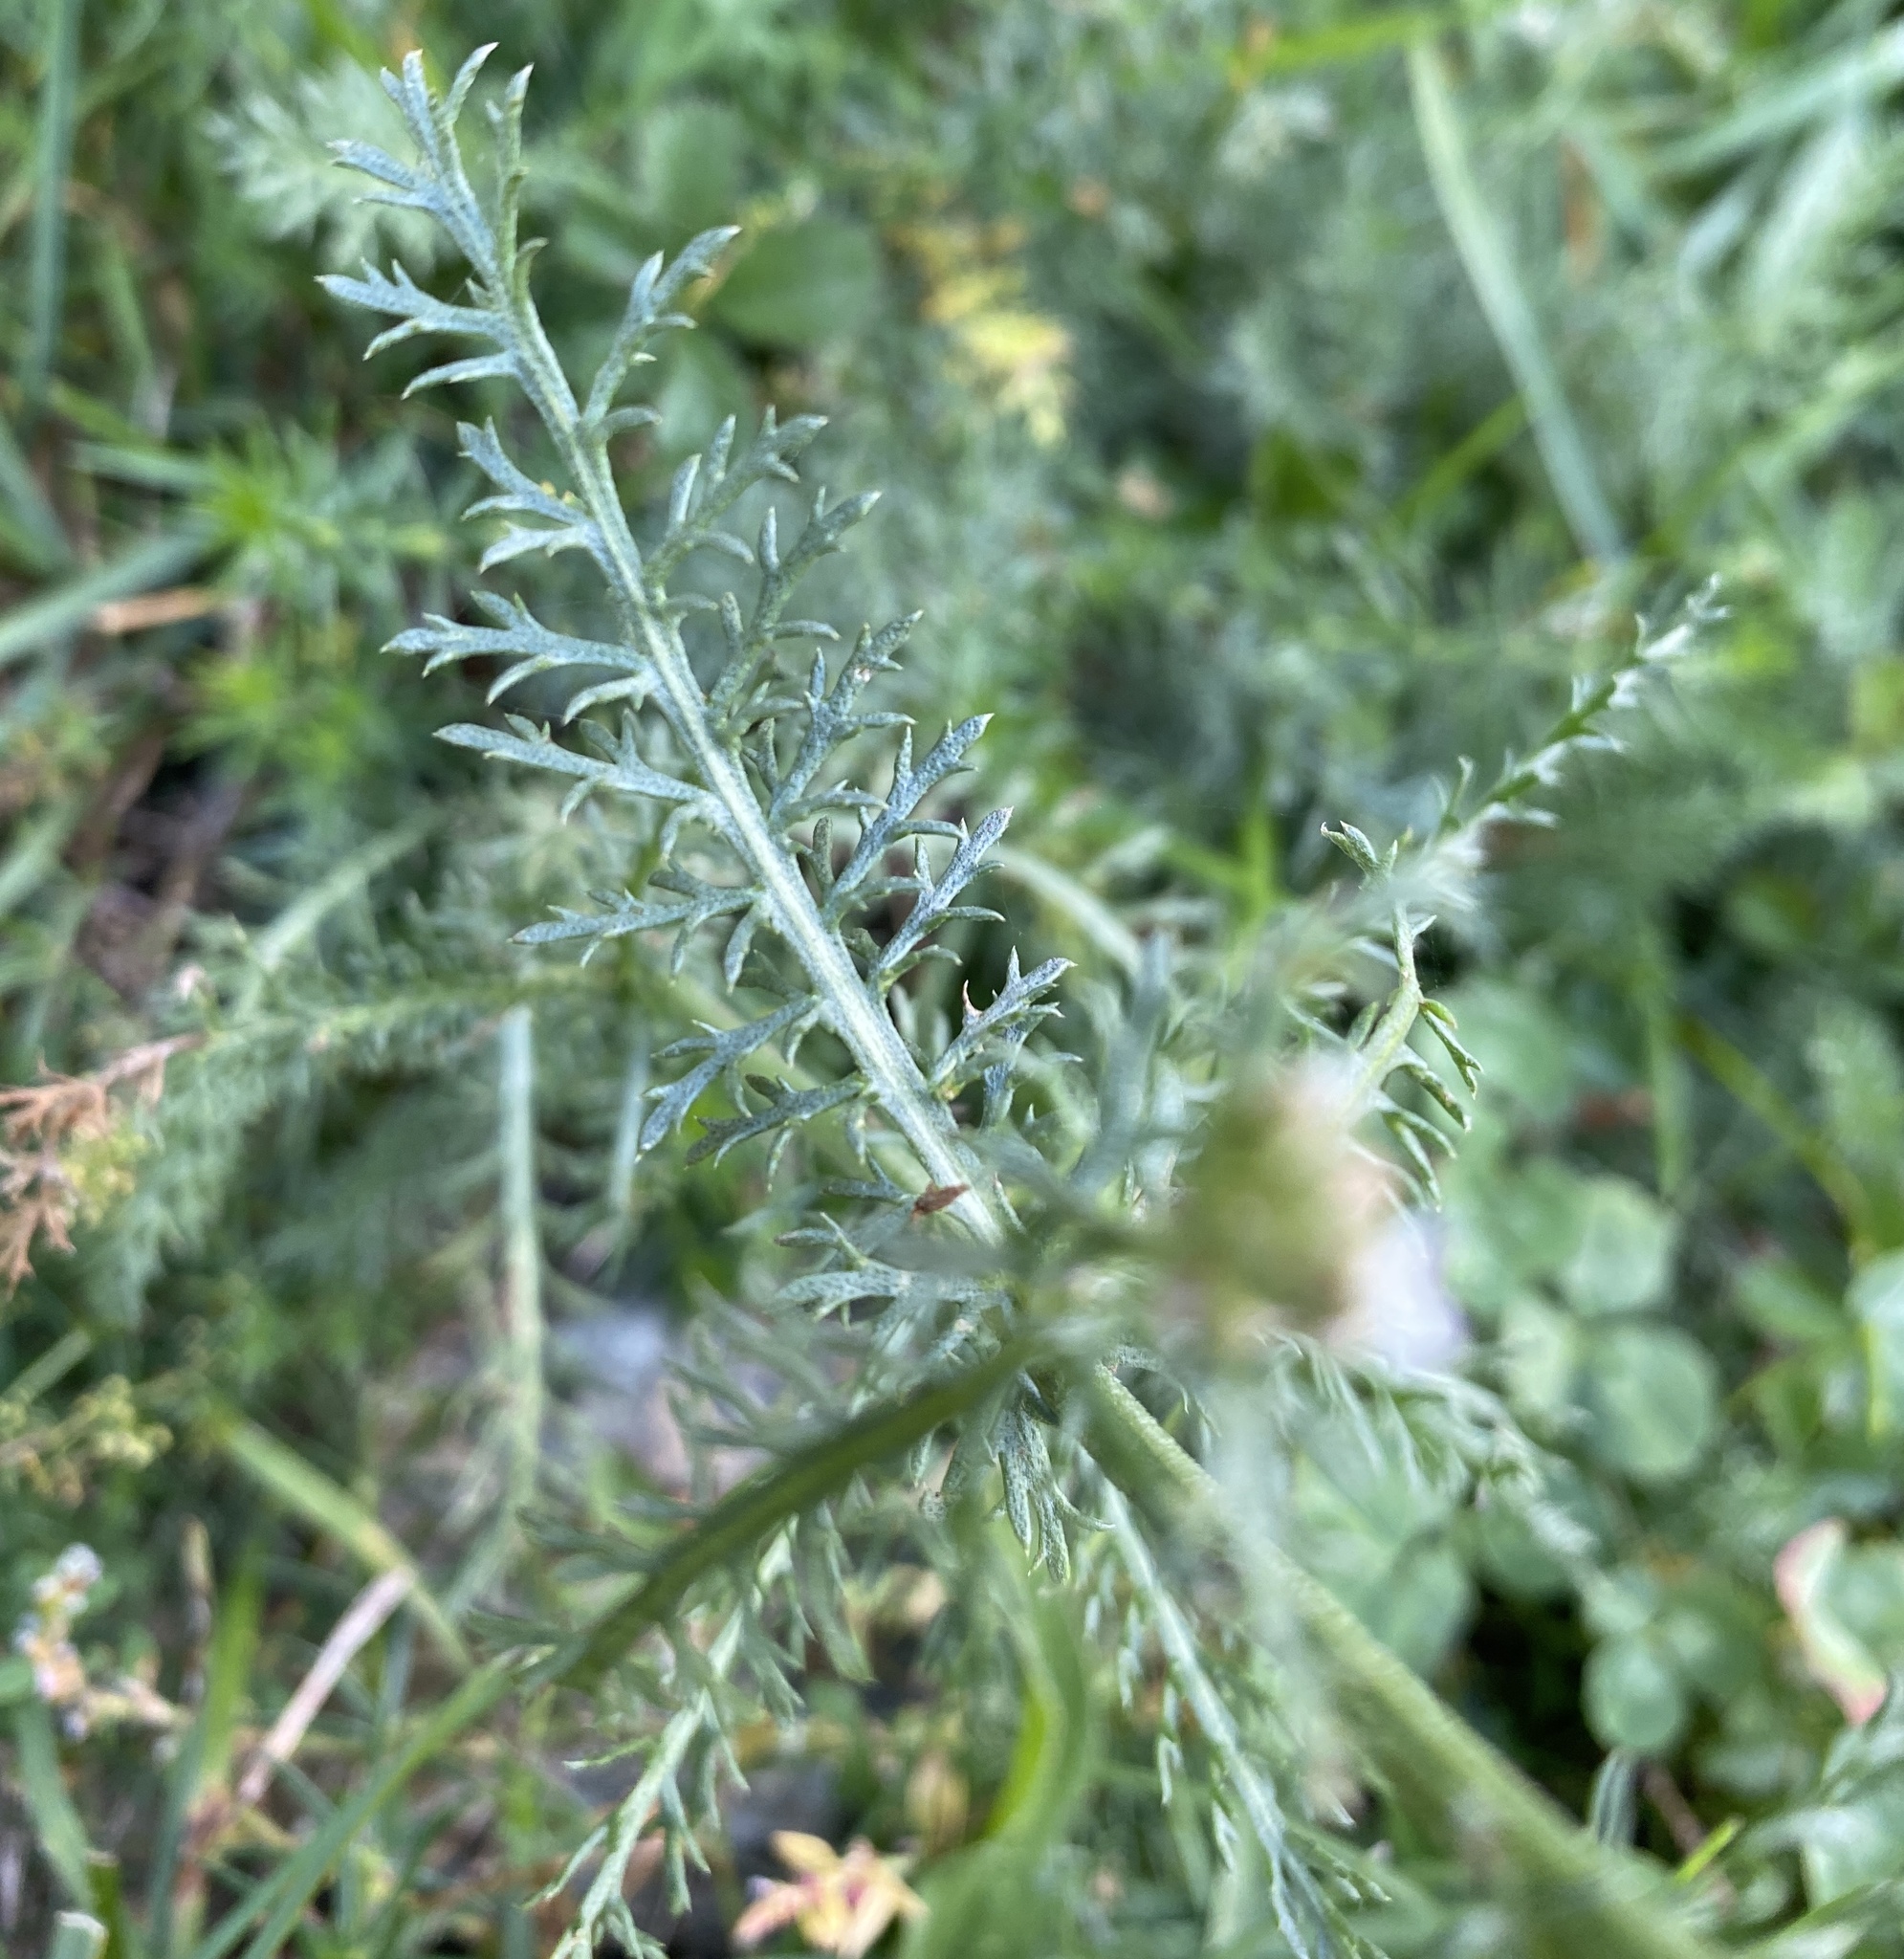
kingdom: Plantae
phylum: Tracheophyta
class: Magnoliopsida
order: Asterales
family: Asteraceae
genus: Achillea
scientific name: Achillea millefolium
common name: Yarrow
